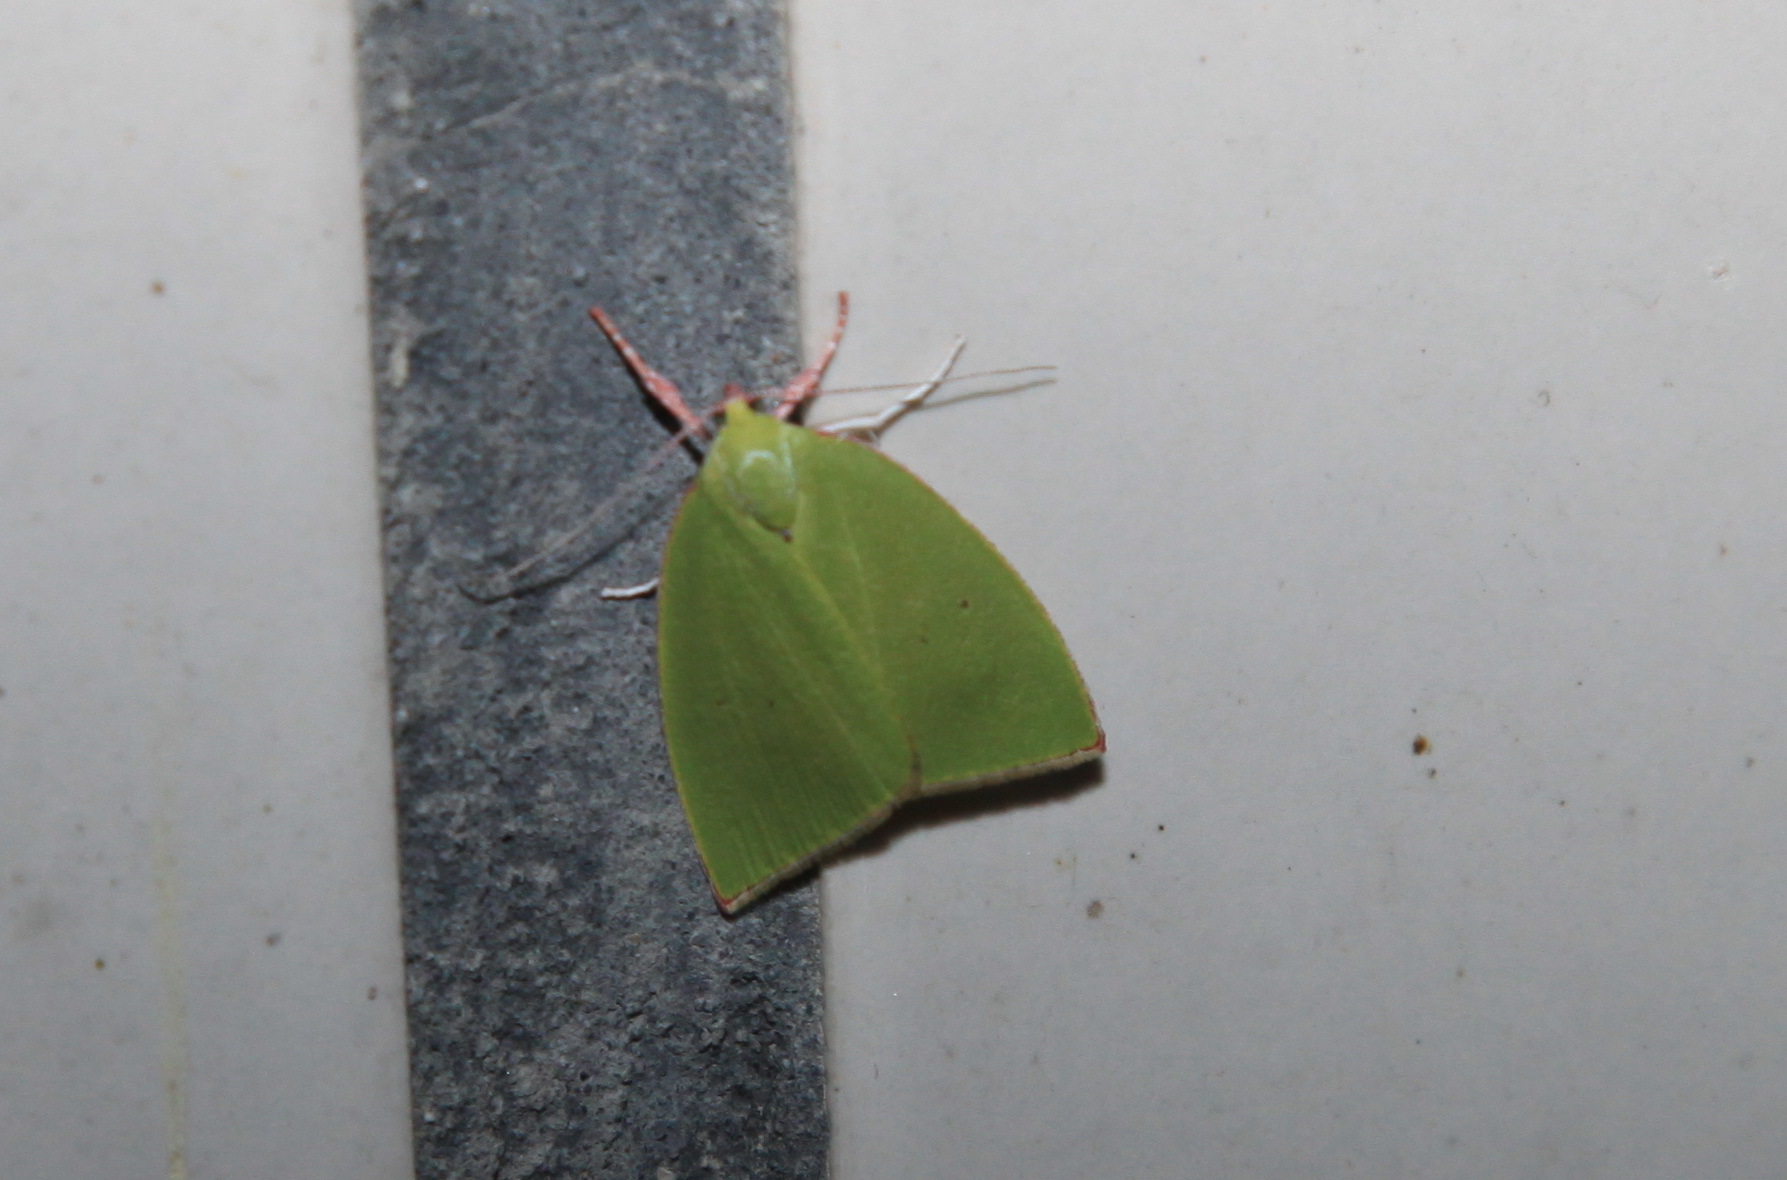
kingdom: Animalia
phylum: Arthropoda
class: Insecta
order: Lepidoptera
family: Nolidae
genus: Tyana
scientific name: Tyana falcata
